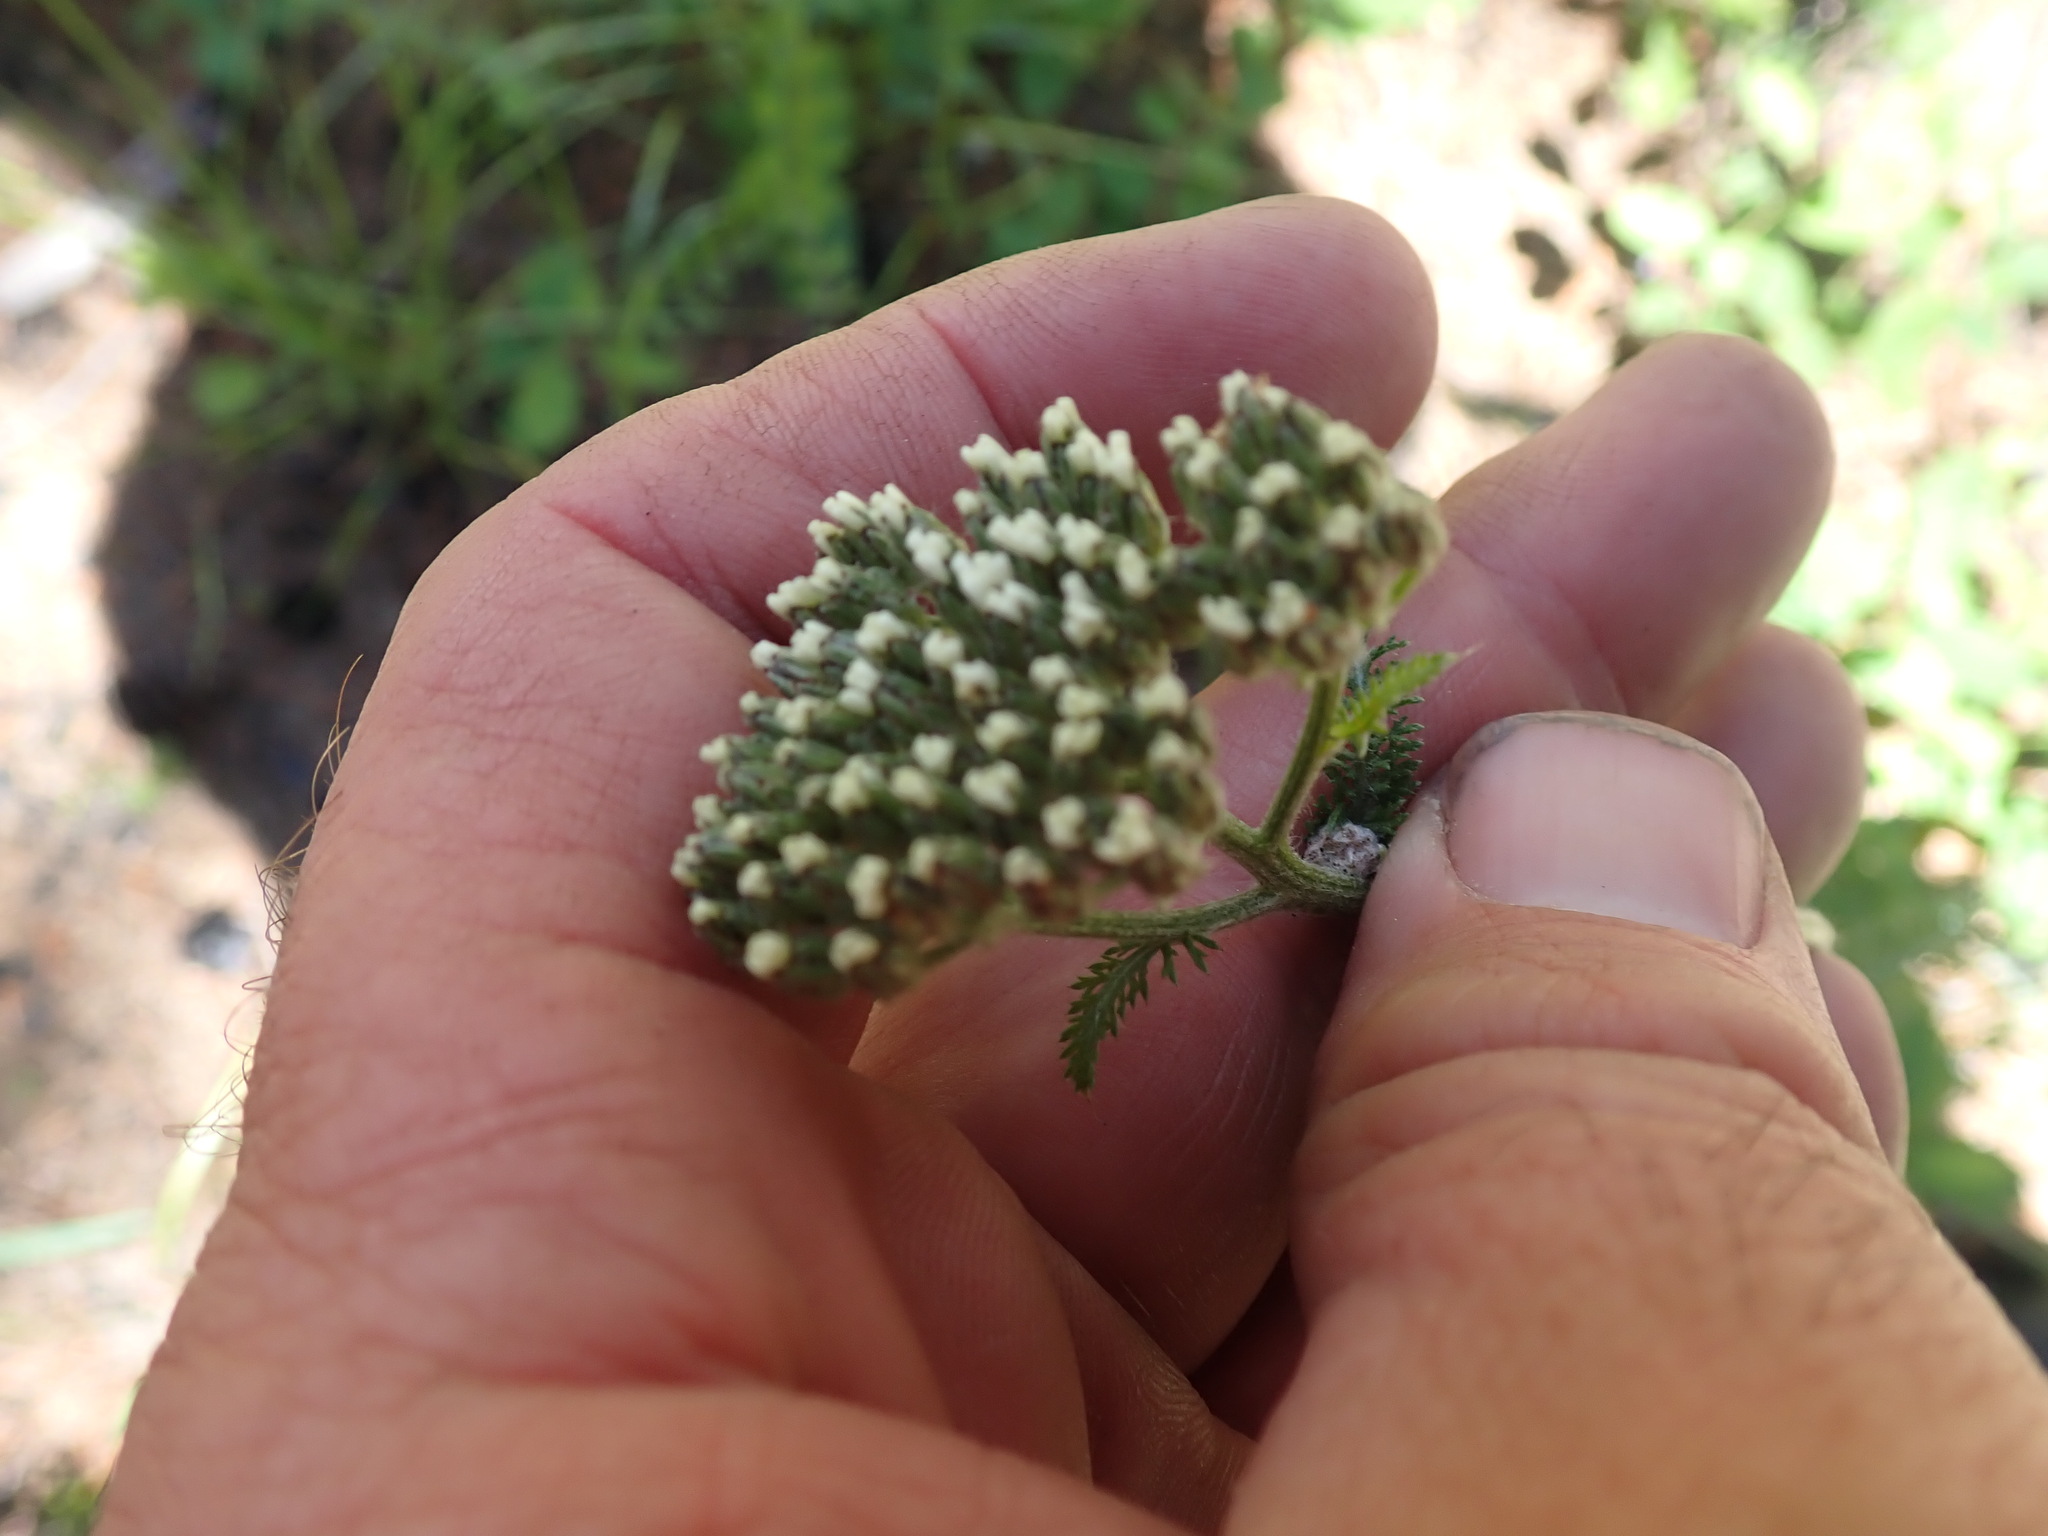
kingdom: Plantae
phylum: Tracheophyta
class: Magnoliopsida
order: Asterales
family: Asteraceae
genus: Achillea
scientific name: Achillea millefolium
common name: Yarrow
